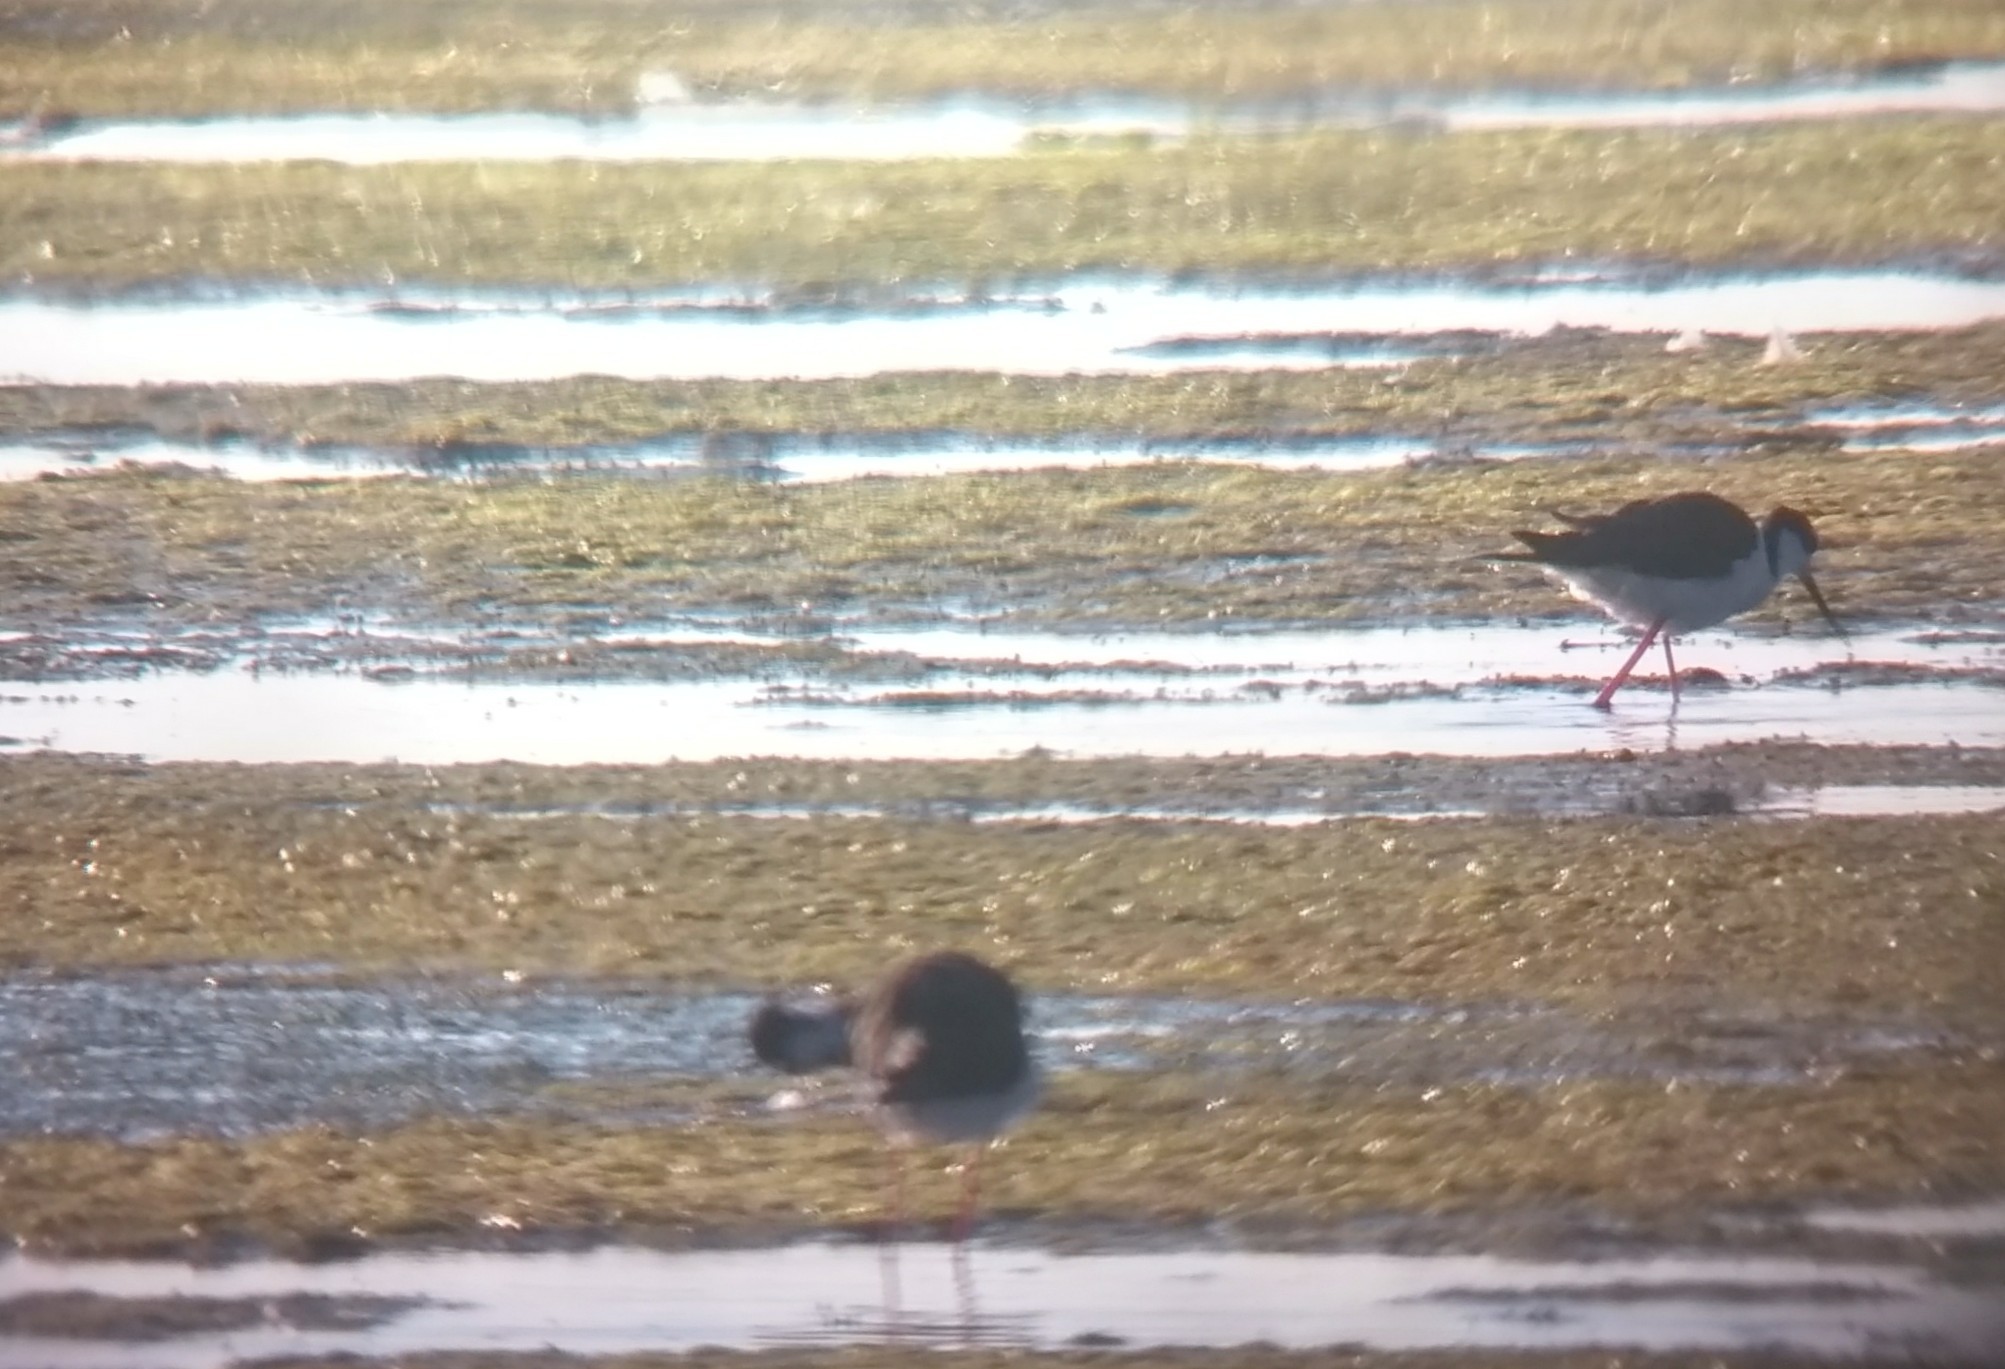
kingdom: Animalia
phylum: Chordata
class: Aves
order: Charadriiformes
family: Recurvirostridae
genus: Himantopus
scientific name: Himantopus mexicanus
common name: Black-necked stilt
